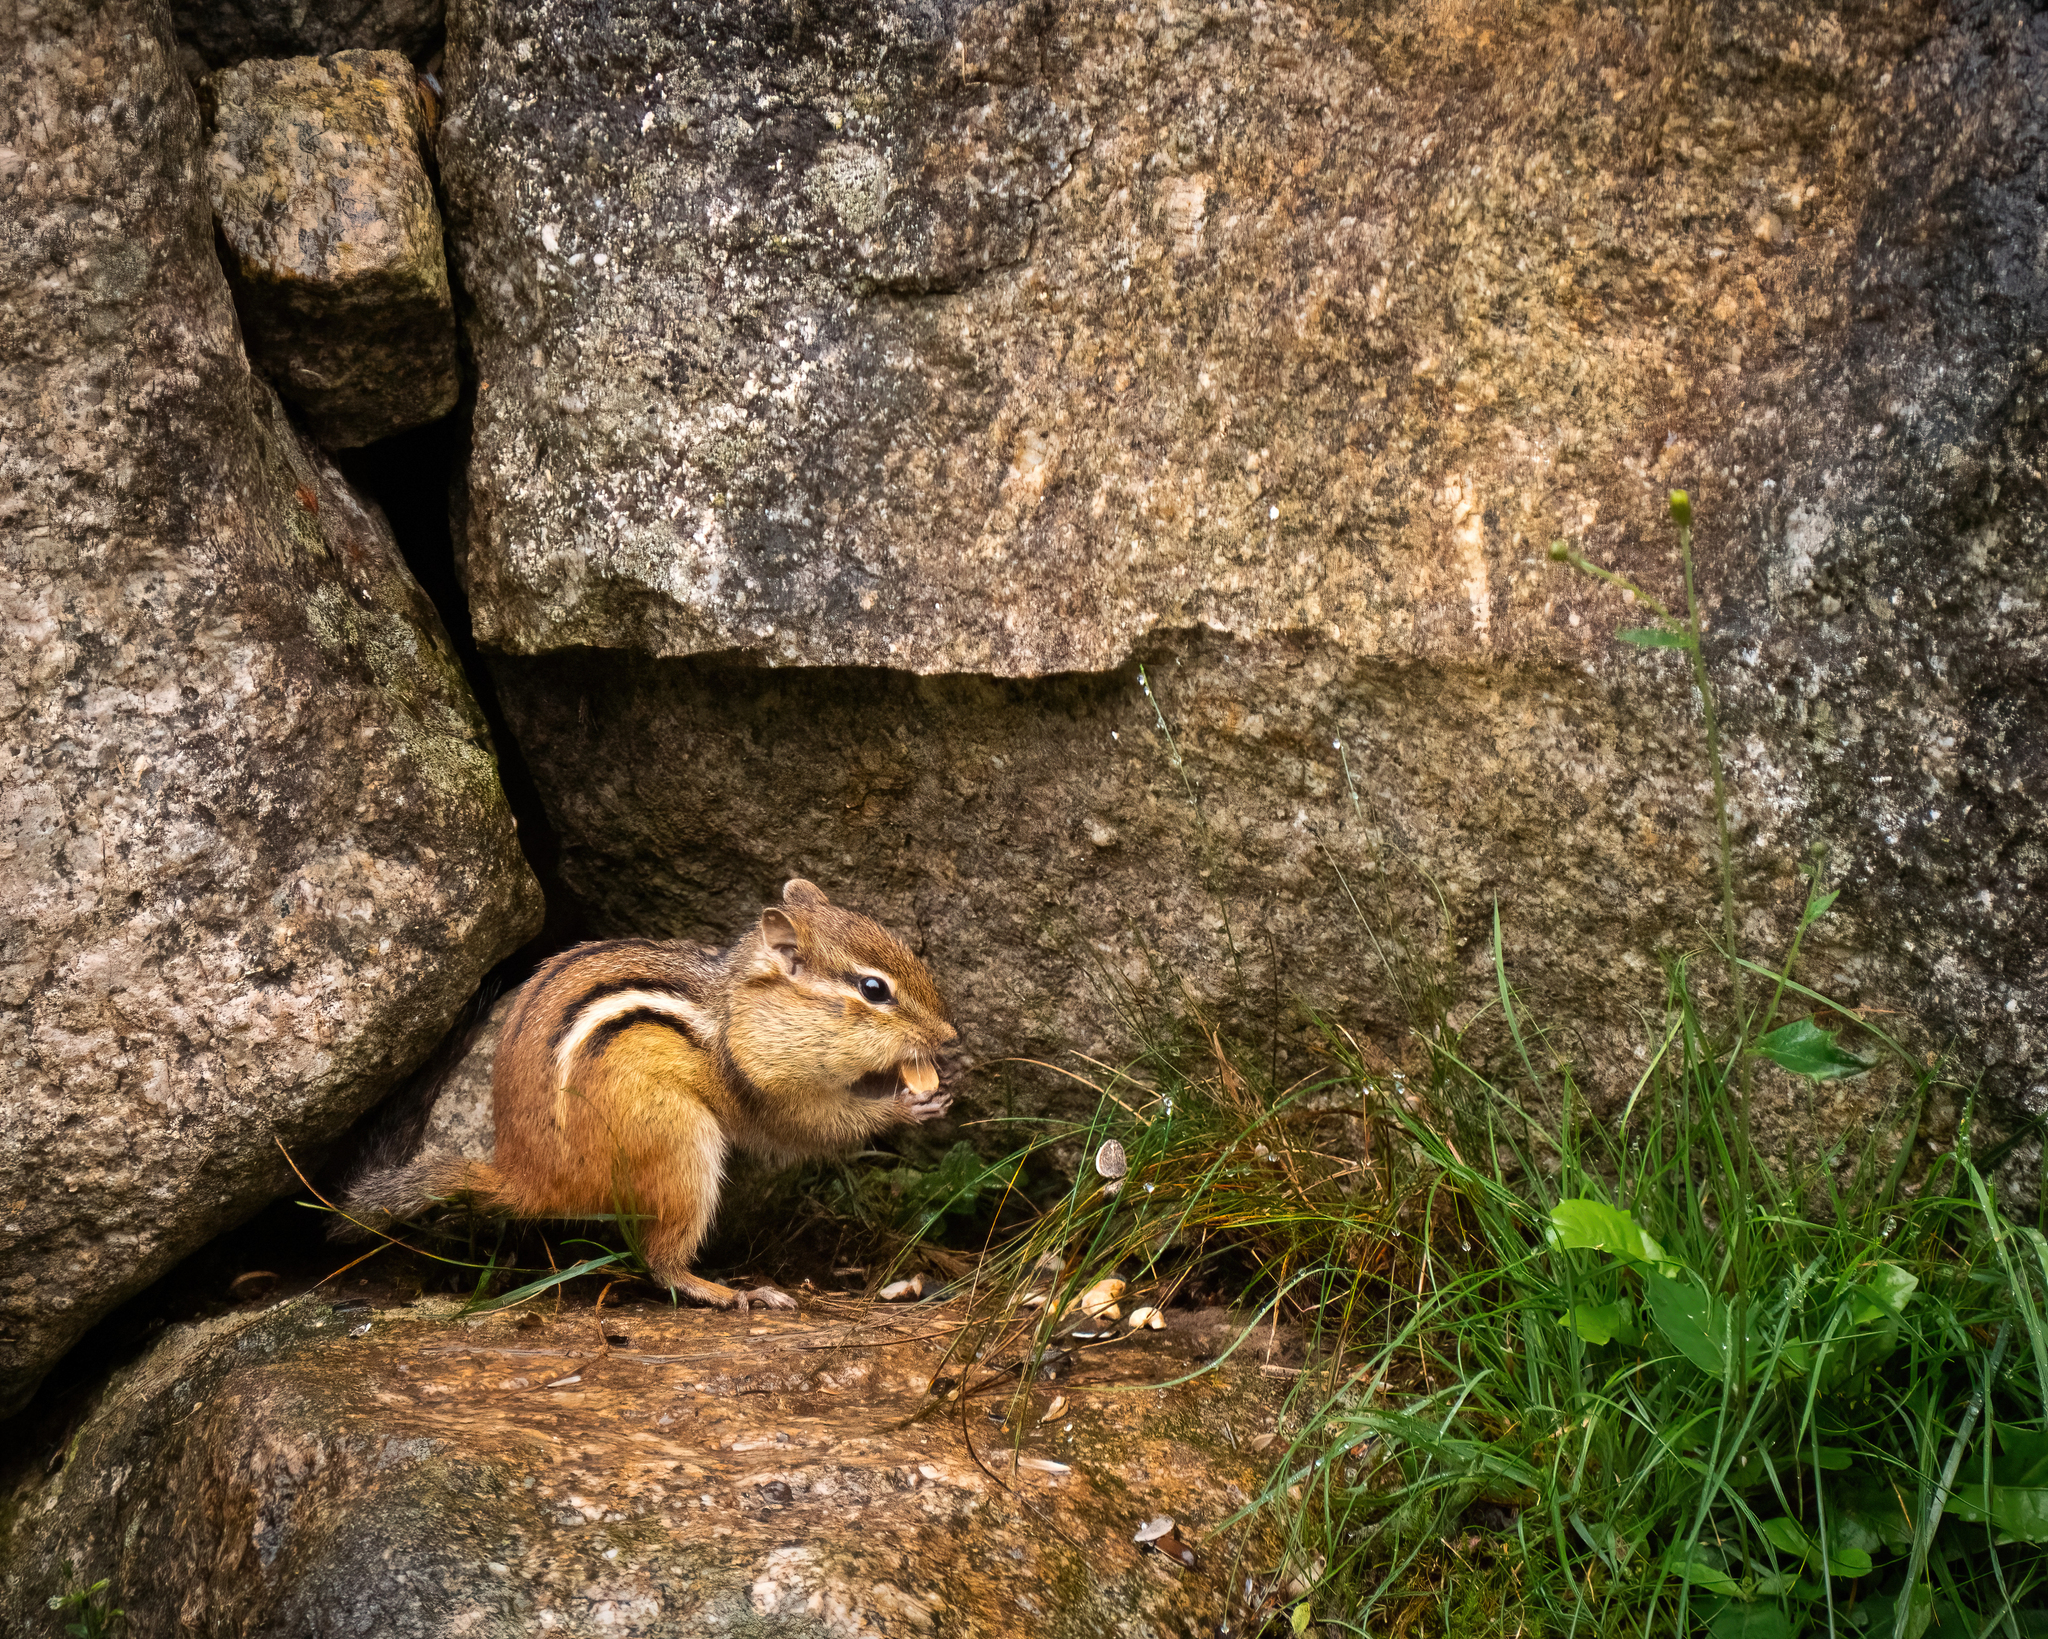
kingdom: Animalia
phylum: Chordata
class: Mammalia
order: Rodentia
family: Sciuridae
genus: Tamias
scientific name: Tamias striatus
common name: Eastern chipmunk
